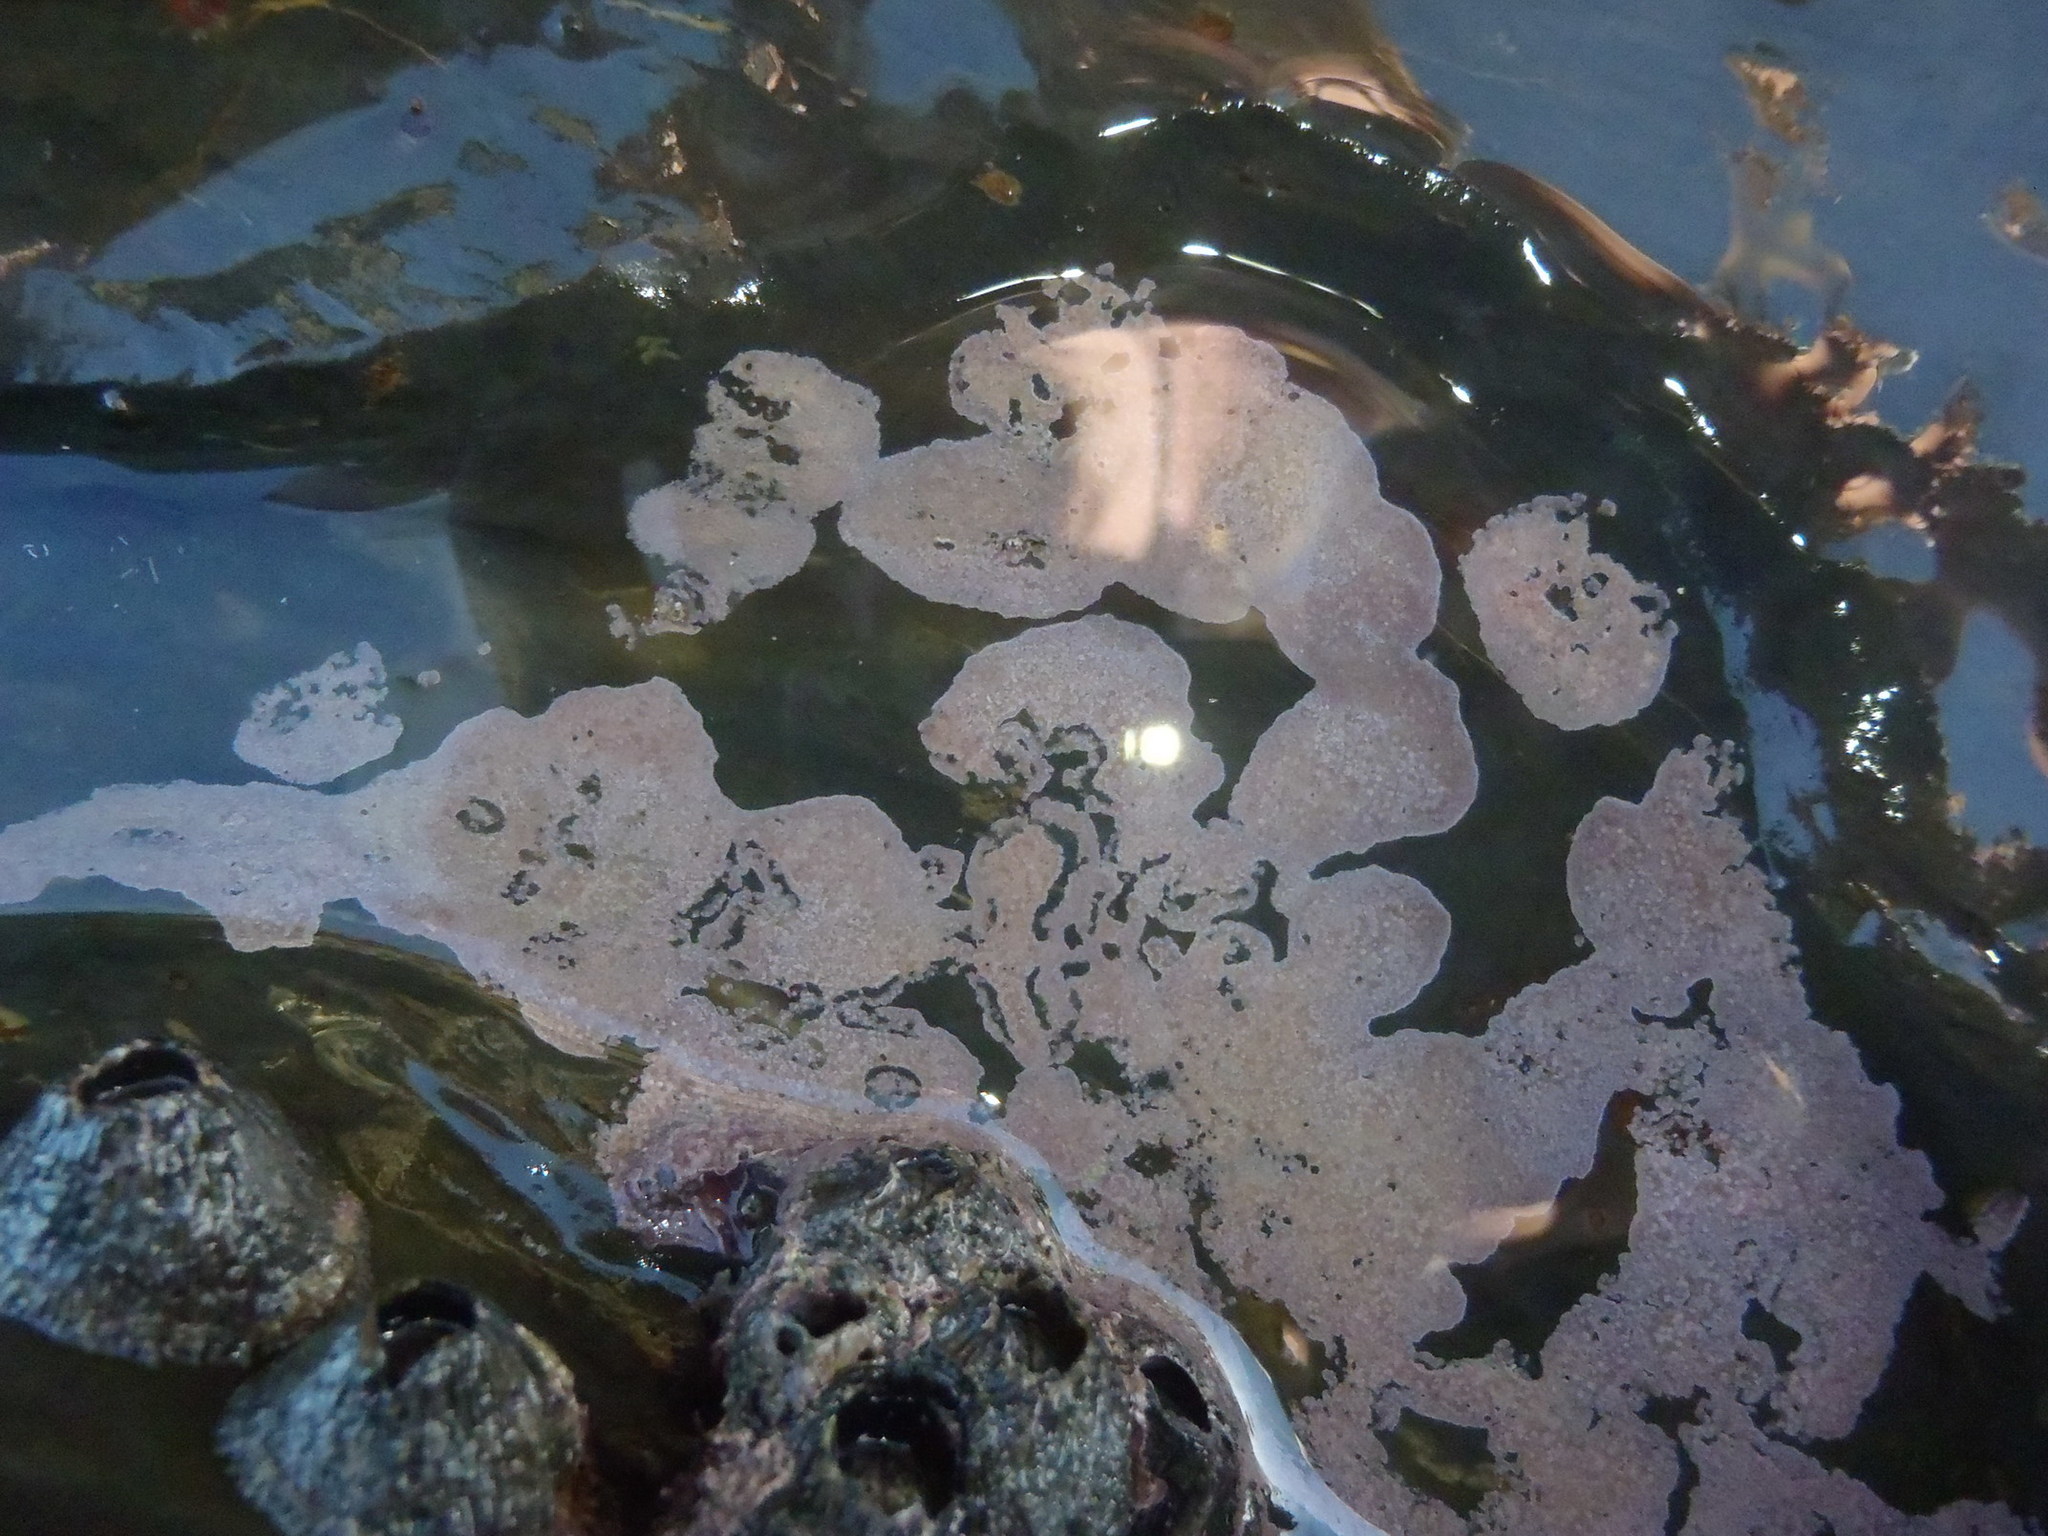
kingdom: Plantae
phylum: Rhodophyta
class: Florideophyceae
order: Corallinales
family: Hapalidiaceae
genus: Phymatolithon
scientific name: Phymatolithon acervatum
